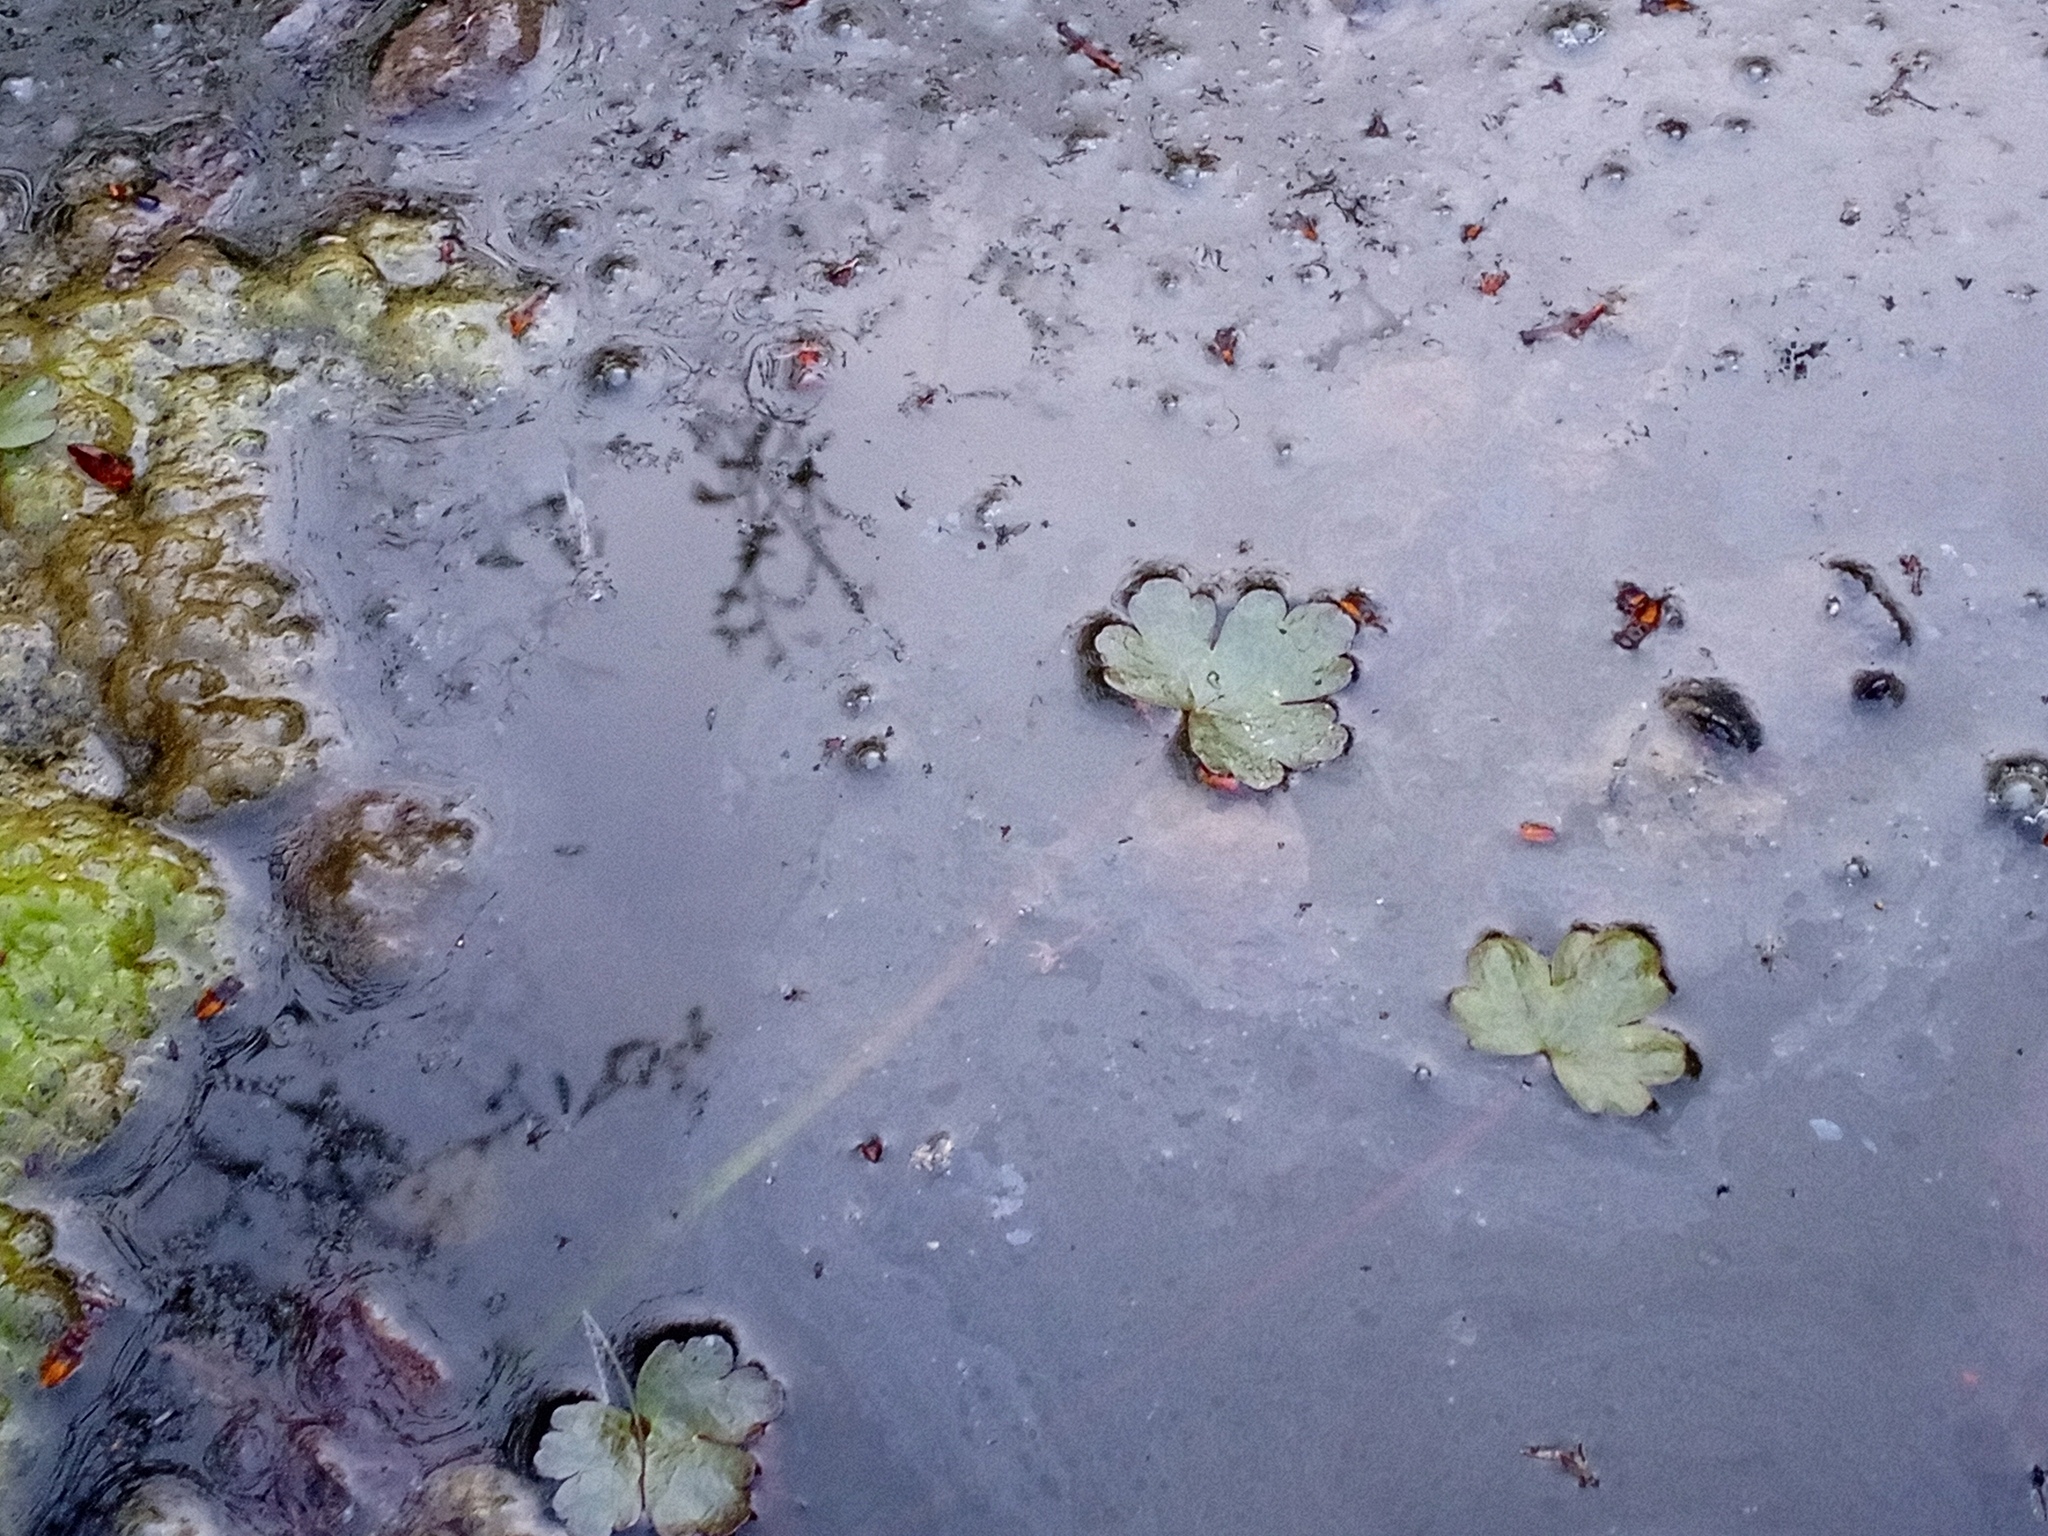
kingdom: Plantae
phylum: Tracheophyta
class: Magnoliopsida
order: Ranunculales
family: Ranunculaceae
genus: Ranunculus
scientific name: Ranunculus sceleratus
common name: Celery-leaved buttercup
